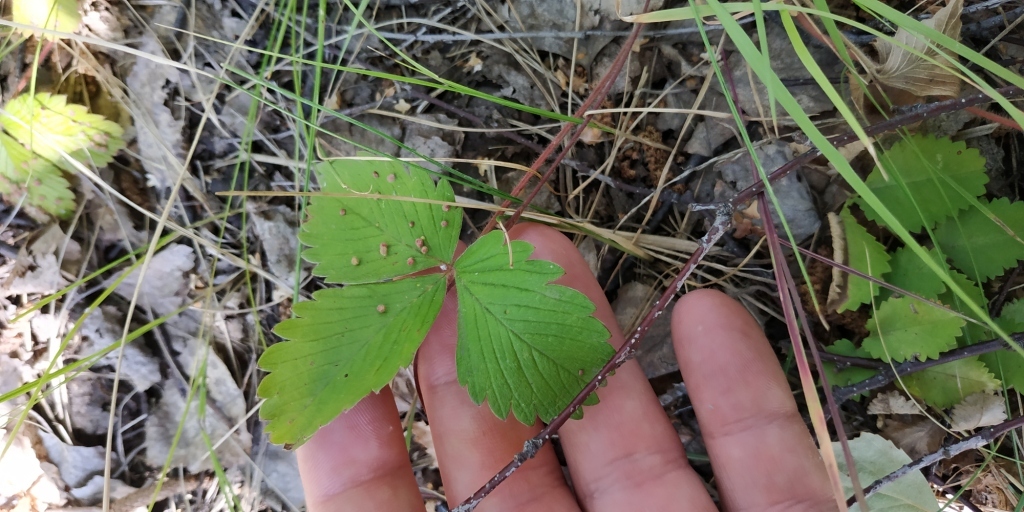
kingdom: Plantae
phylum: Tracheophyta
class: Magnoliopsida
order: Rosales
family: Rosaceae
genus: Fragaria
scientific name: Fragaria viridis
